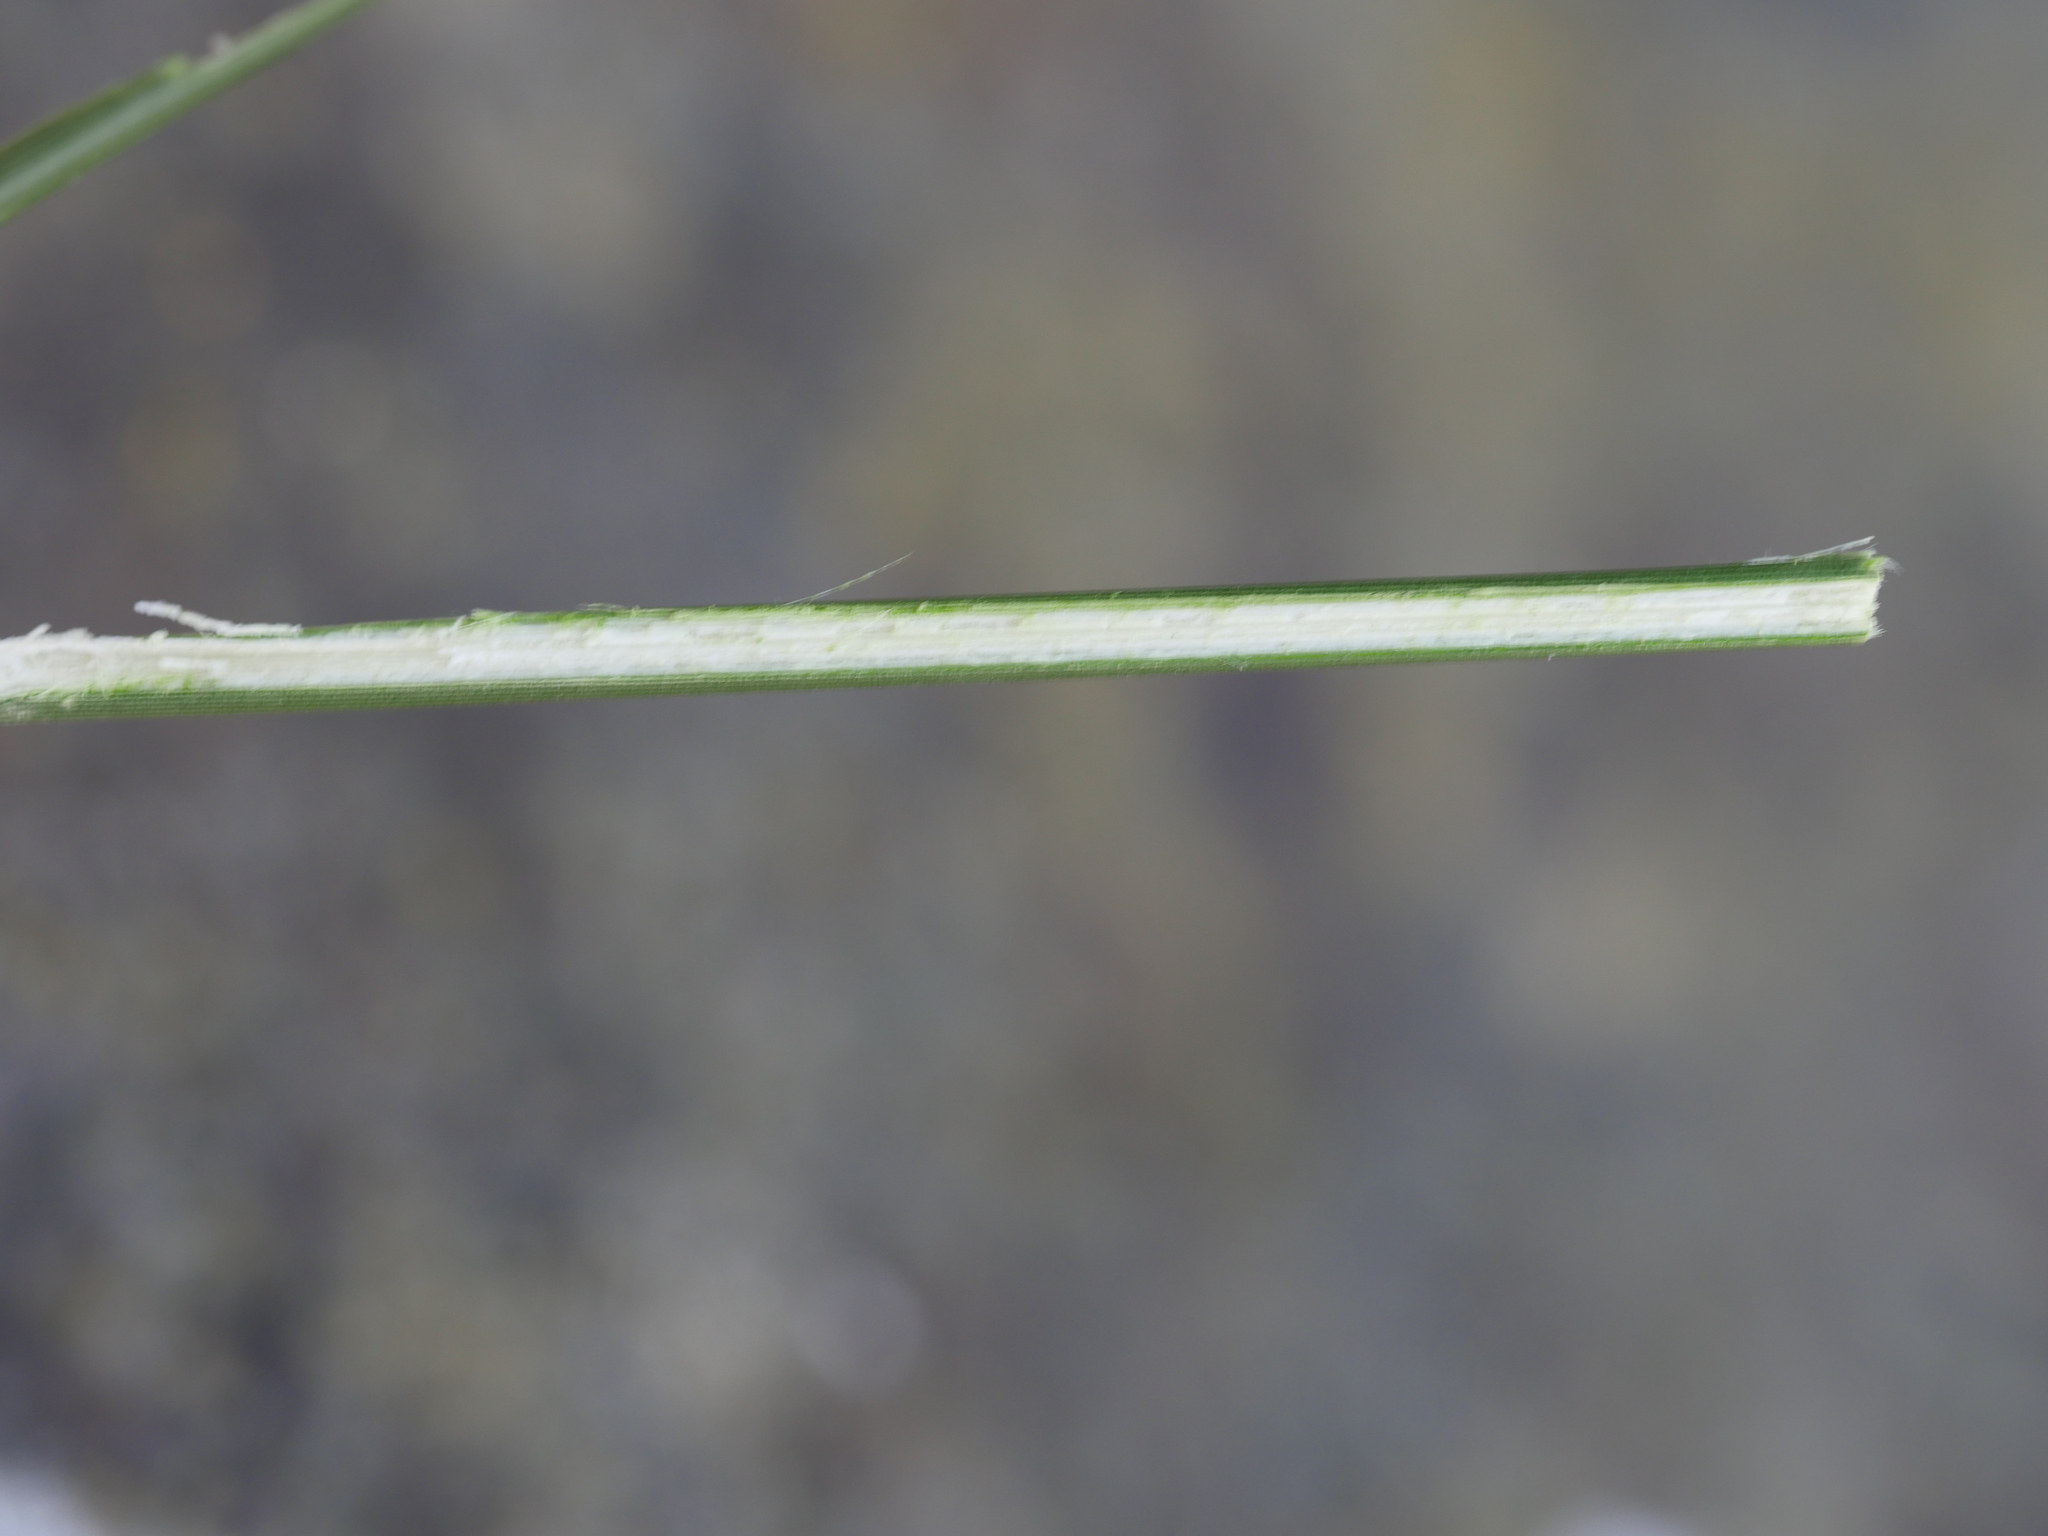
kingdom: Plantae
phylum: Tracheophyta
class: Liliopsida
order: Poales
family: Juncaceae
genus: Juncus
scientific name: Juncus kraussii
